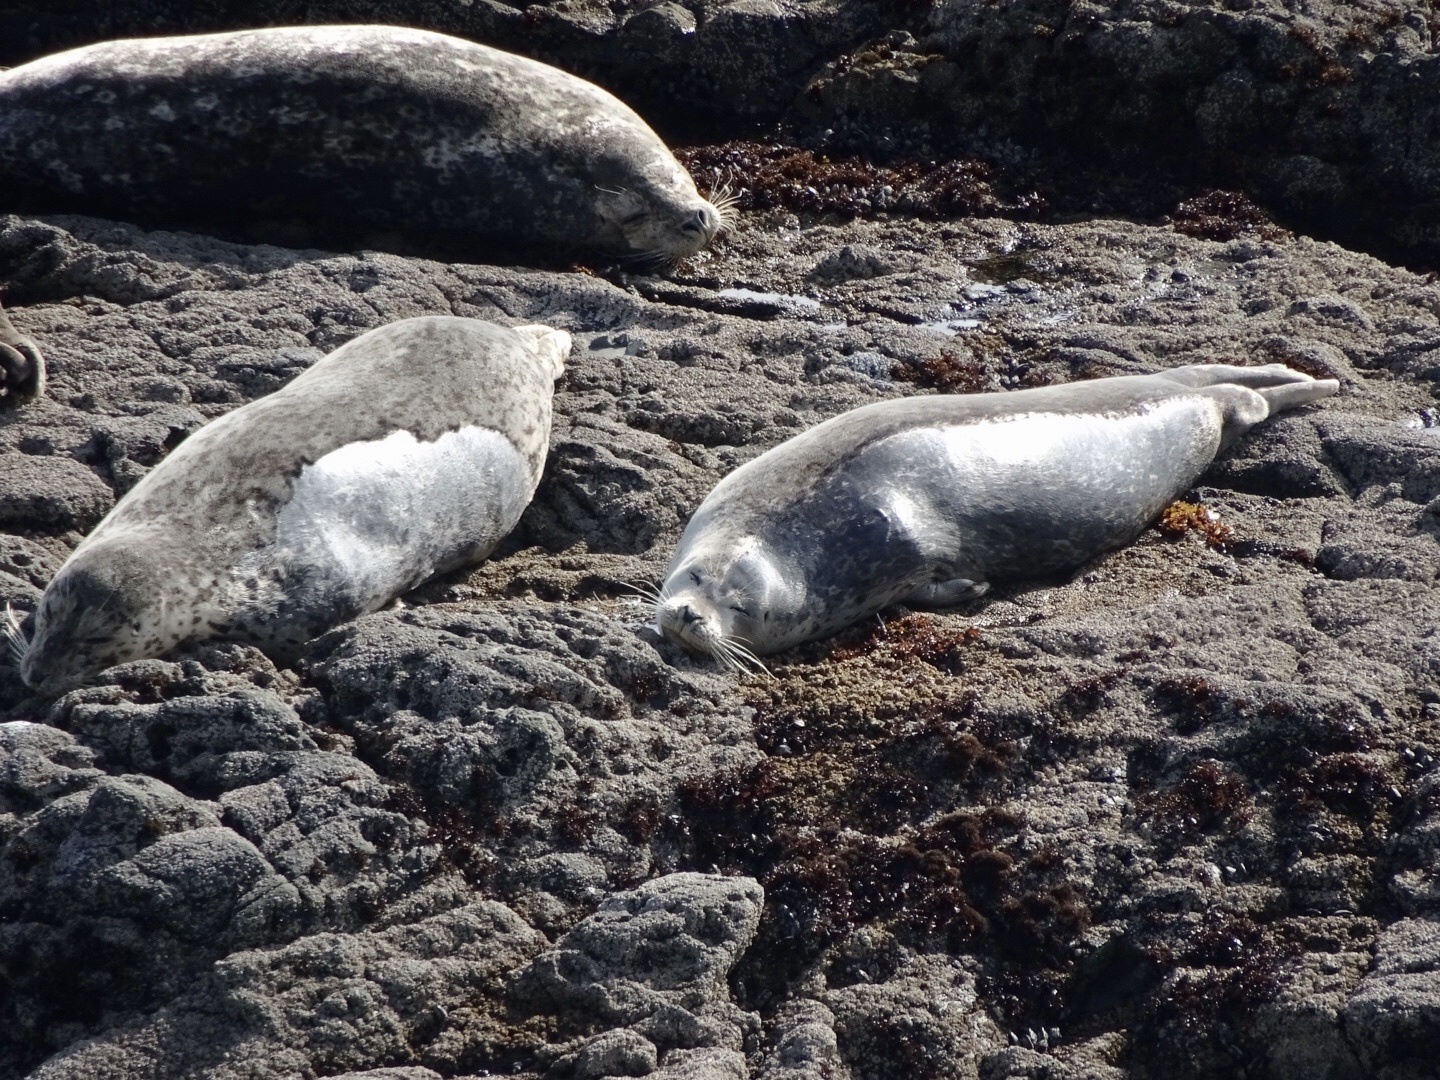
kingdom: Animalia
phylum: Chordata
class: Mammalia
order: Carnivora
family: Phocidae
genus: Phoca
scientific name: Phoca vitulina
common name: Harbor seal
